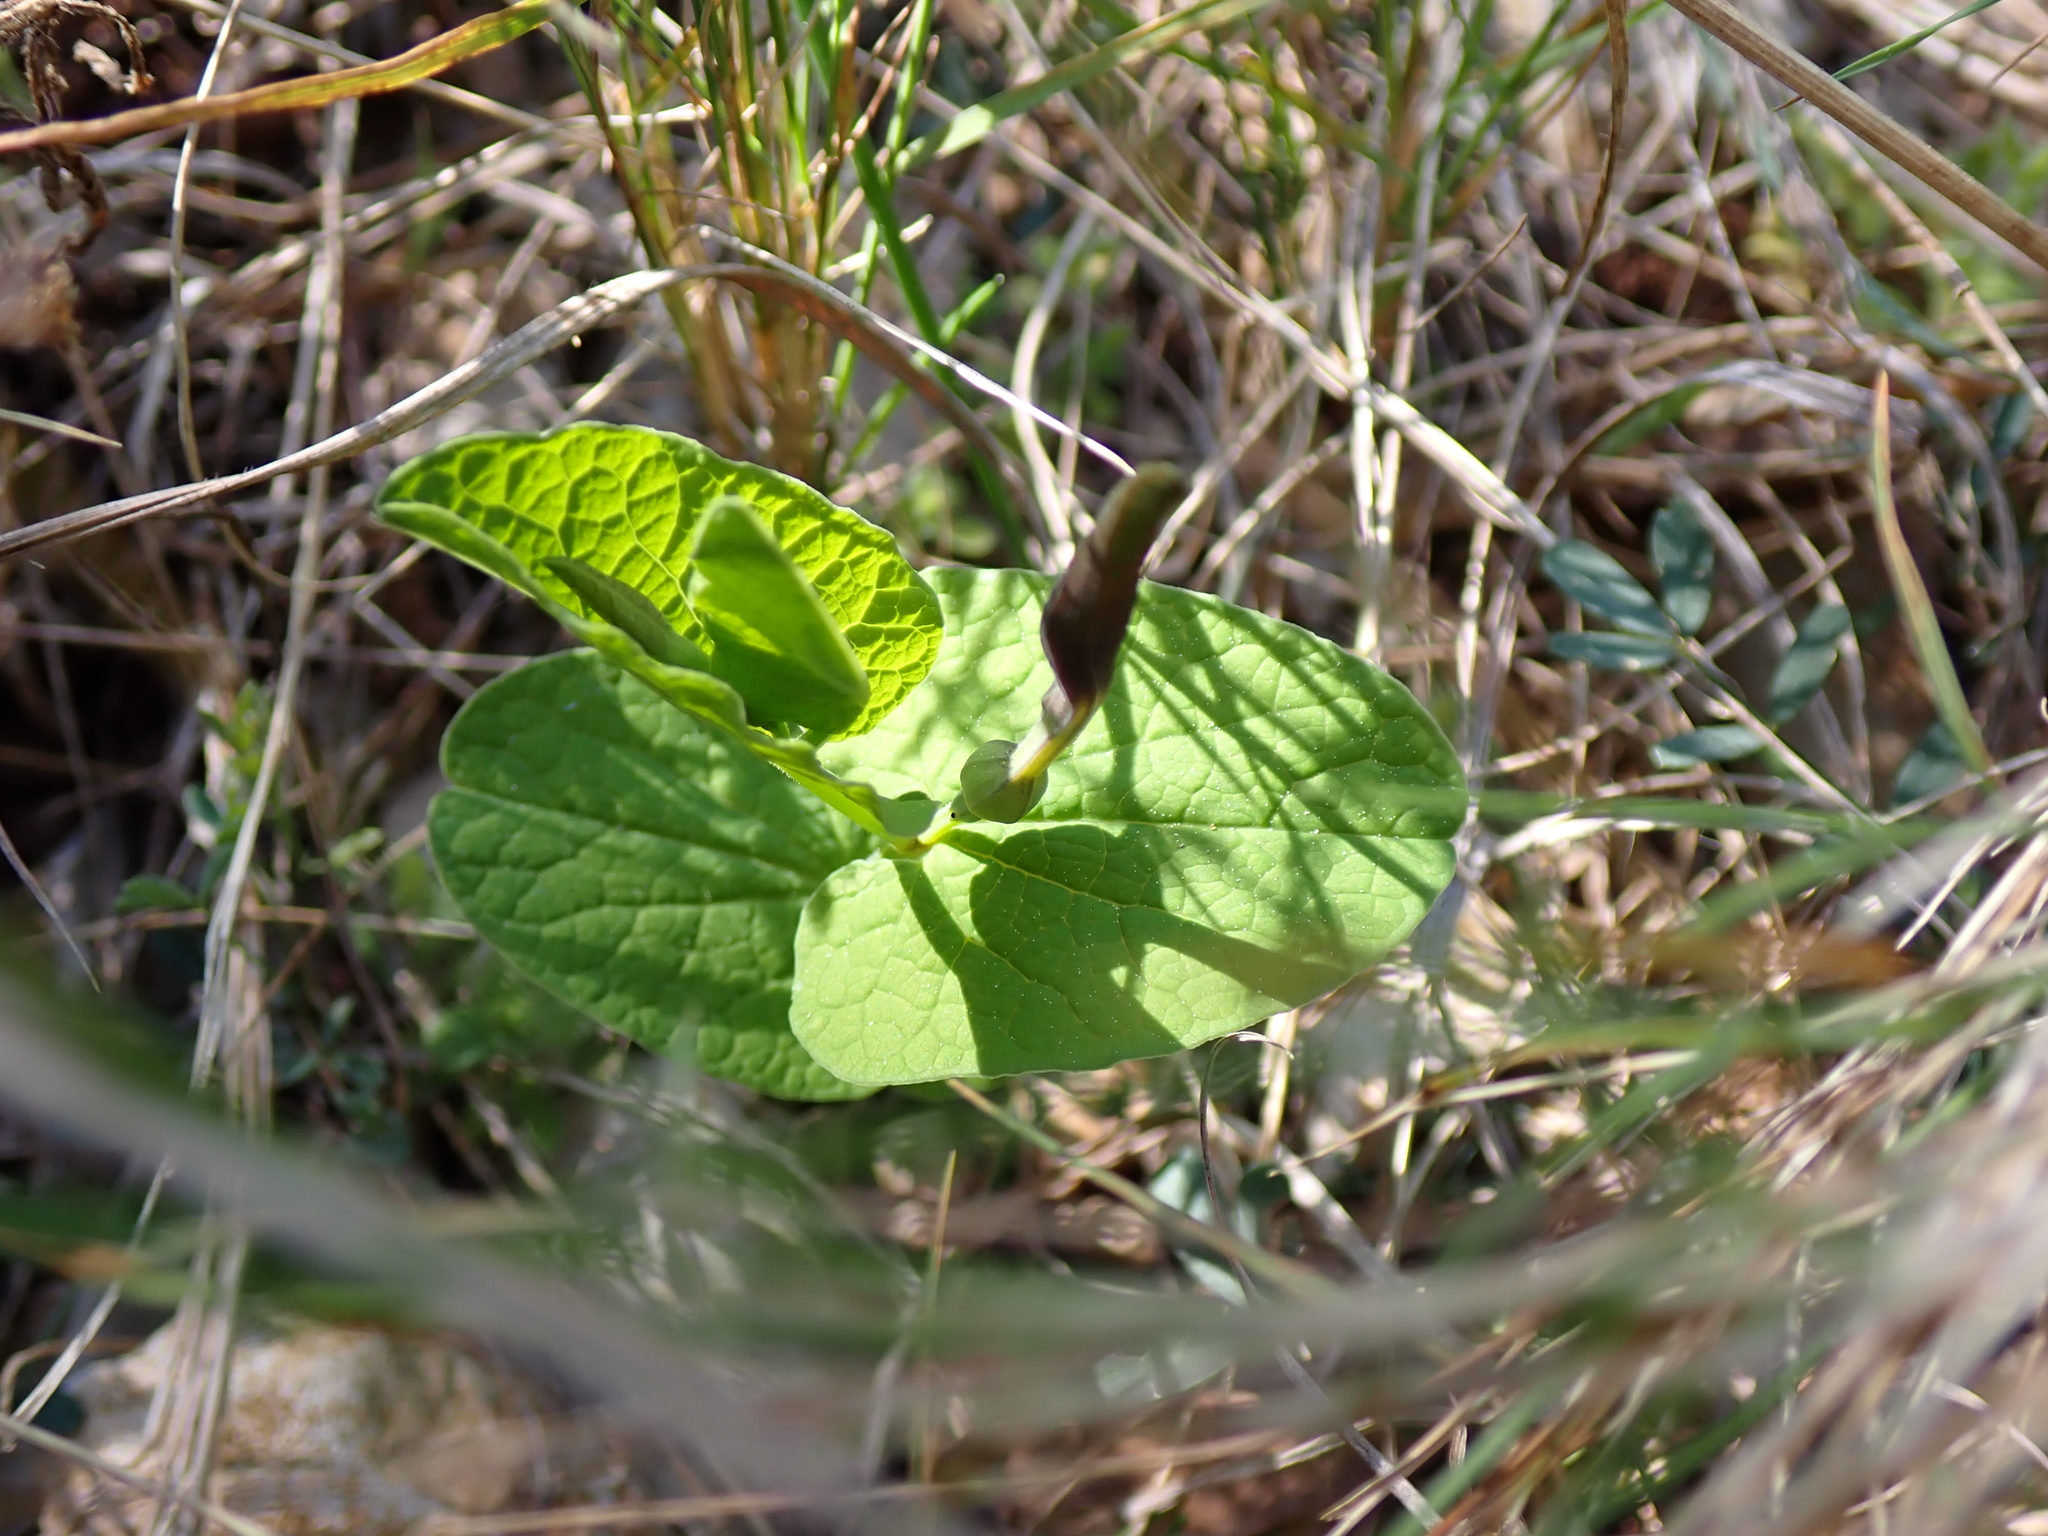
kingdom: Plantae
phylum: Tracheophyta
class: Magnoliopsida
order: Piperales
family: Aristolochiaceae
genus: Aristolochia
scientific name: Aristolochia rotunda
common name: Smearwort
